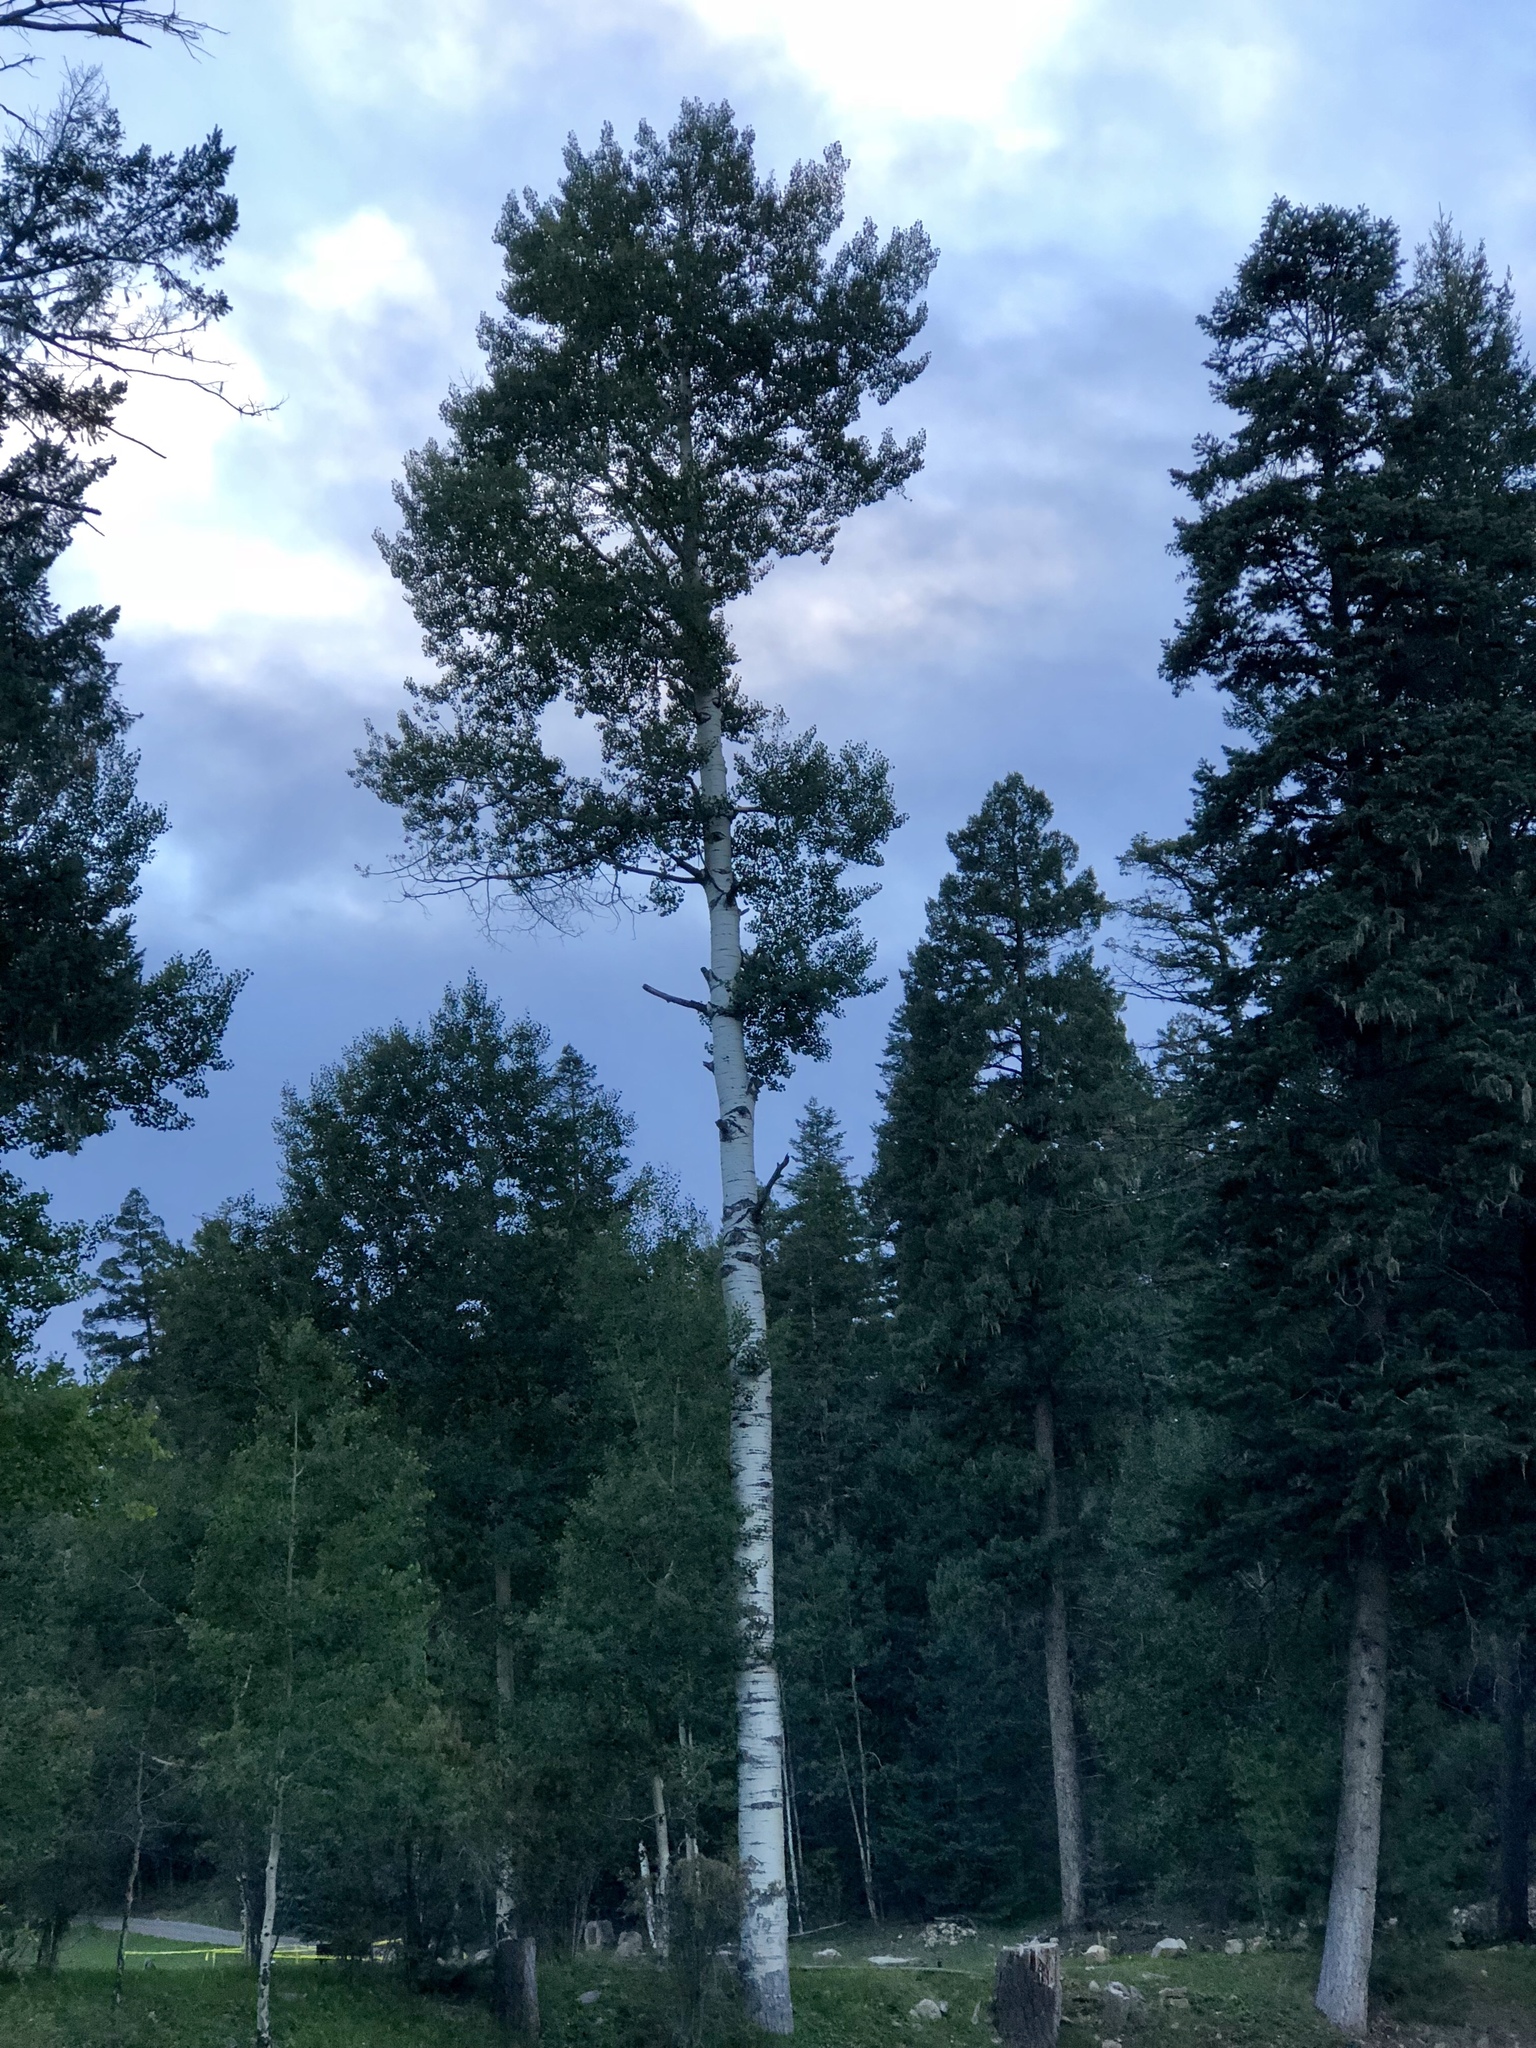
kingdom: Plantae
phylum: Tracheophyta
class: Magnoliopsida
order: Malpighiales
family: Salicaceae
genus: Populus
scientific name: Populus tremuloides
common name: Quaking aspen
